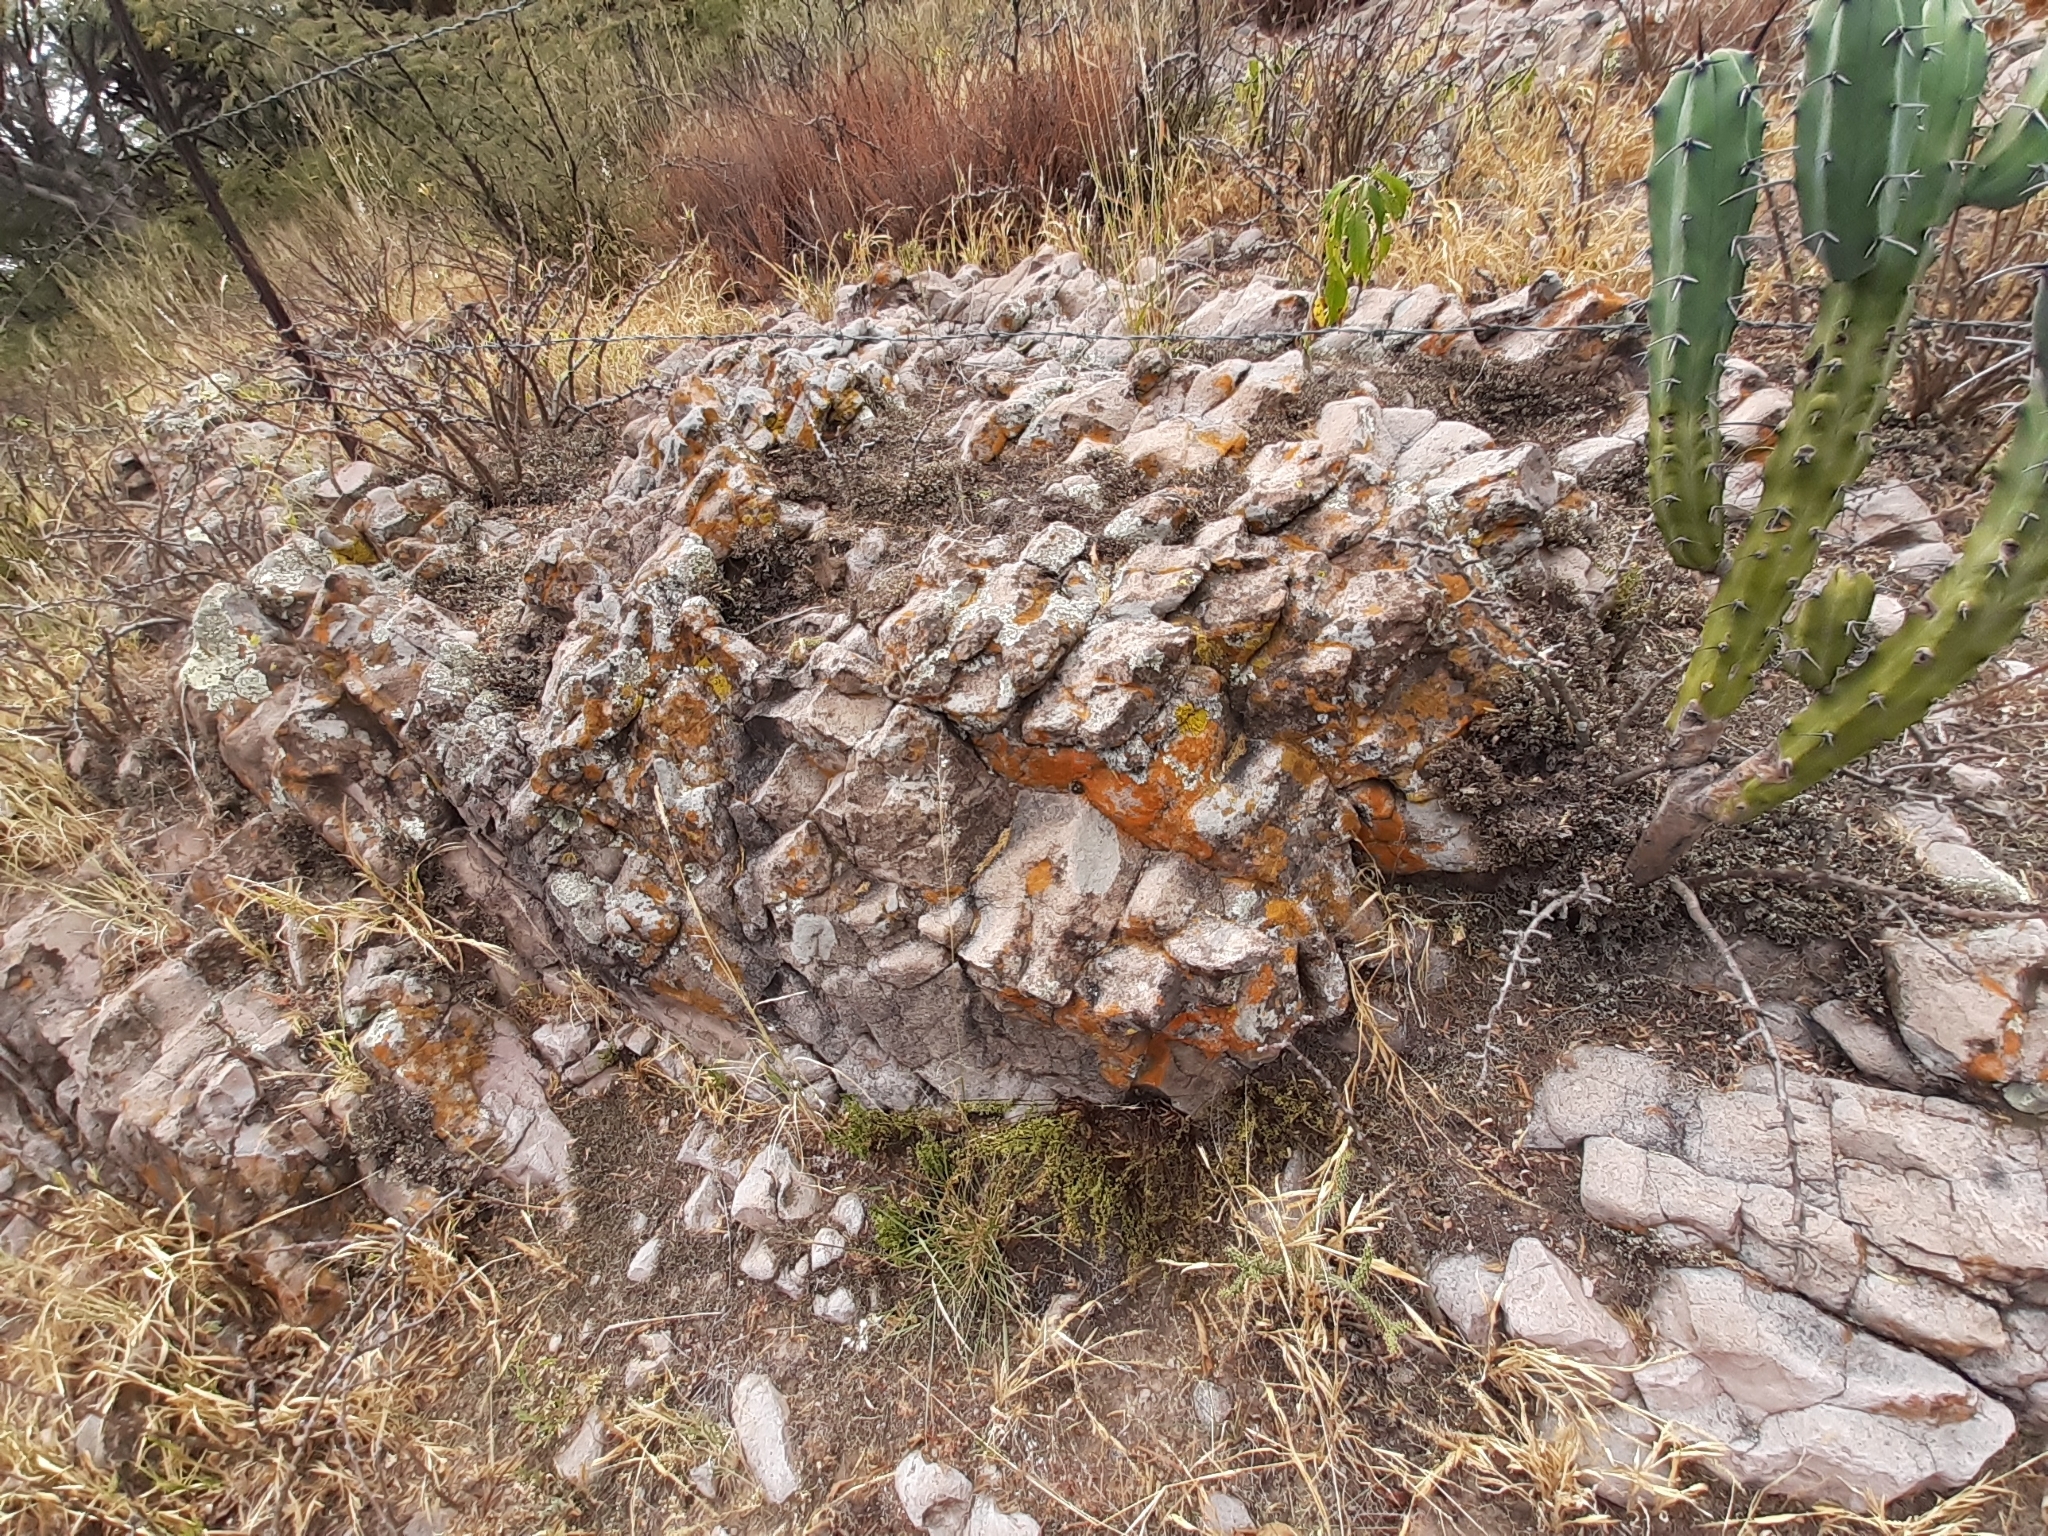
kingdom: Fungi
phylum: Ascomycota
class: Lecanoromycetes
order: Acarosporales
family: Acarosporaceae
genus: Acarospora
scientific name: Acarospora socialis
